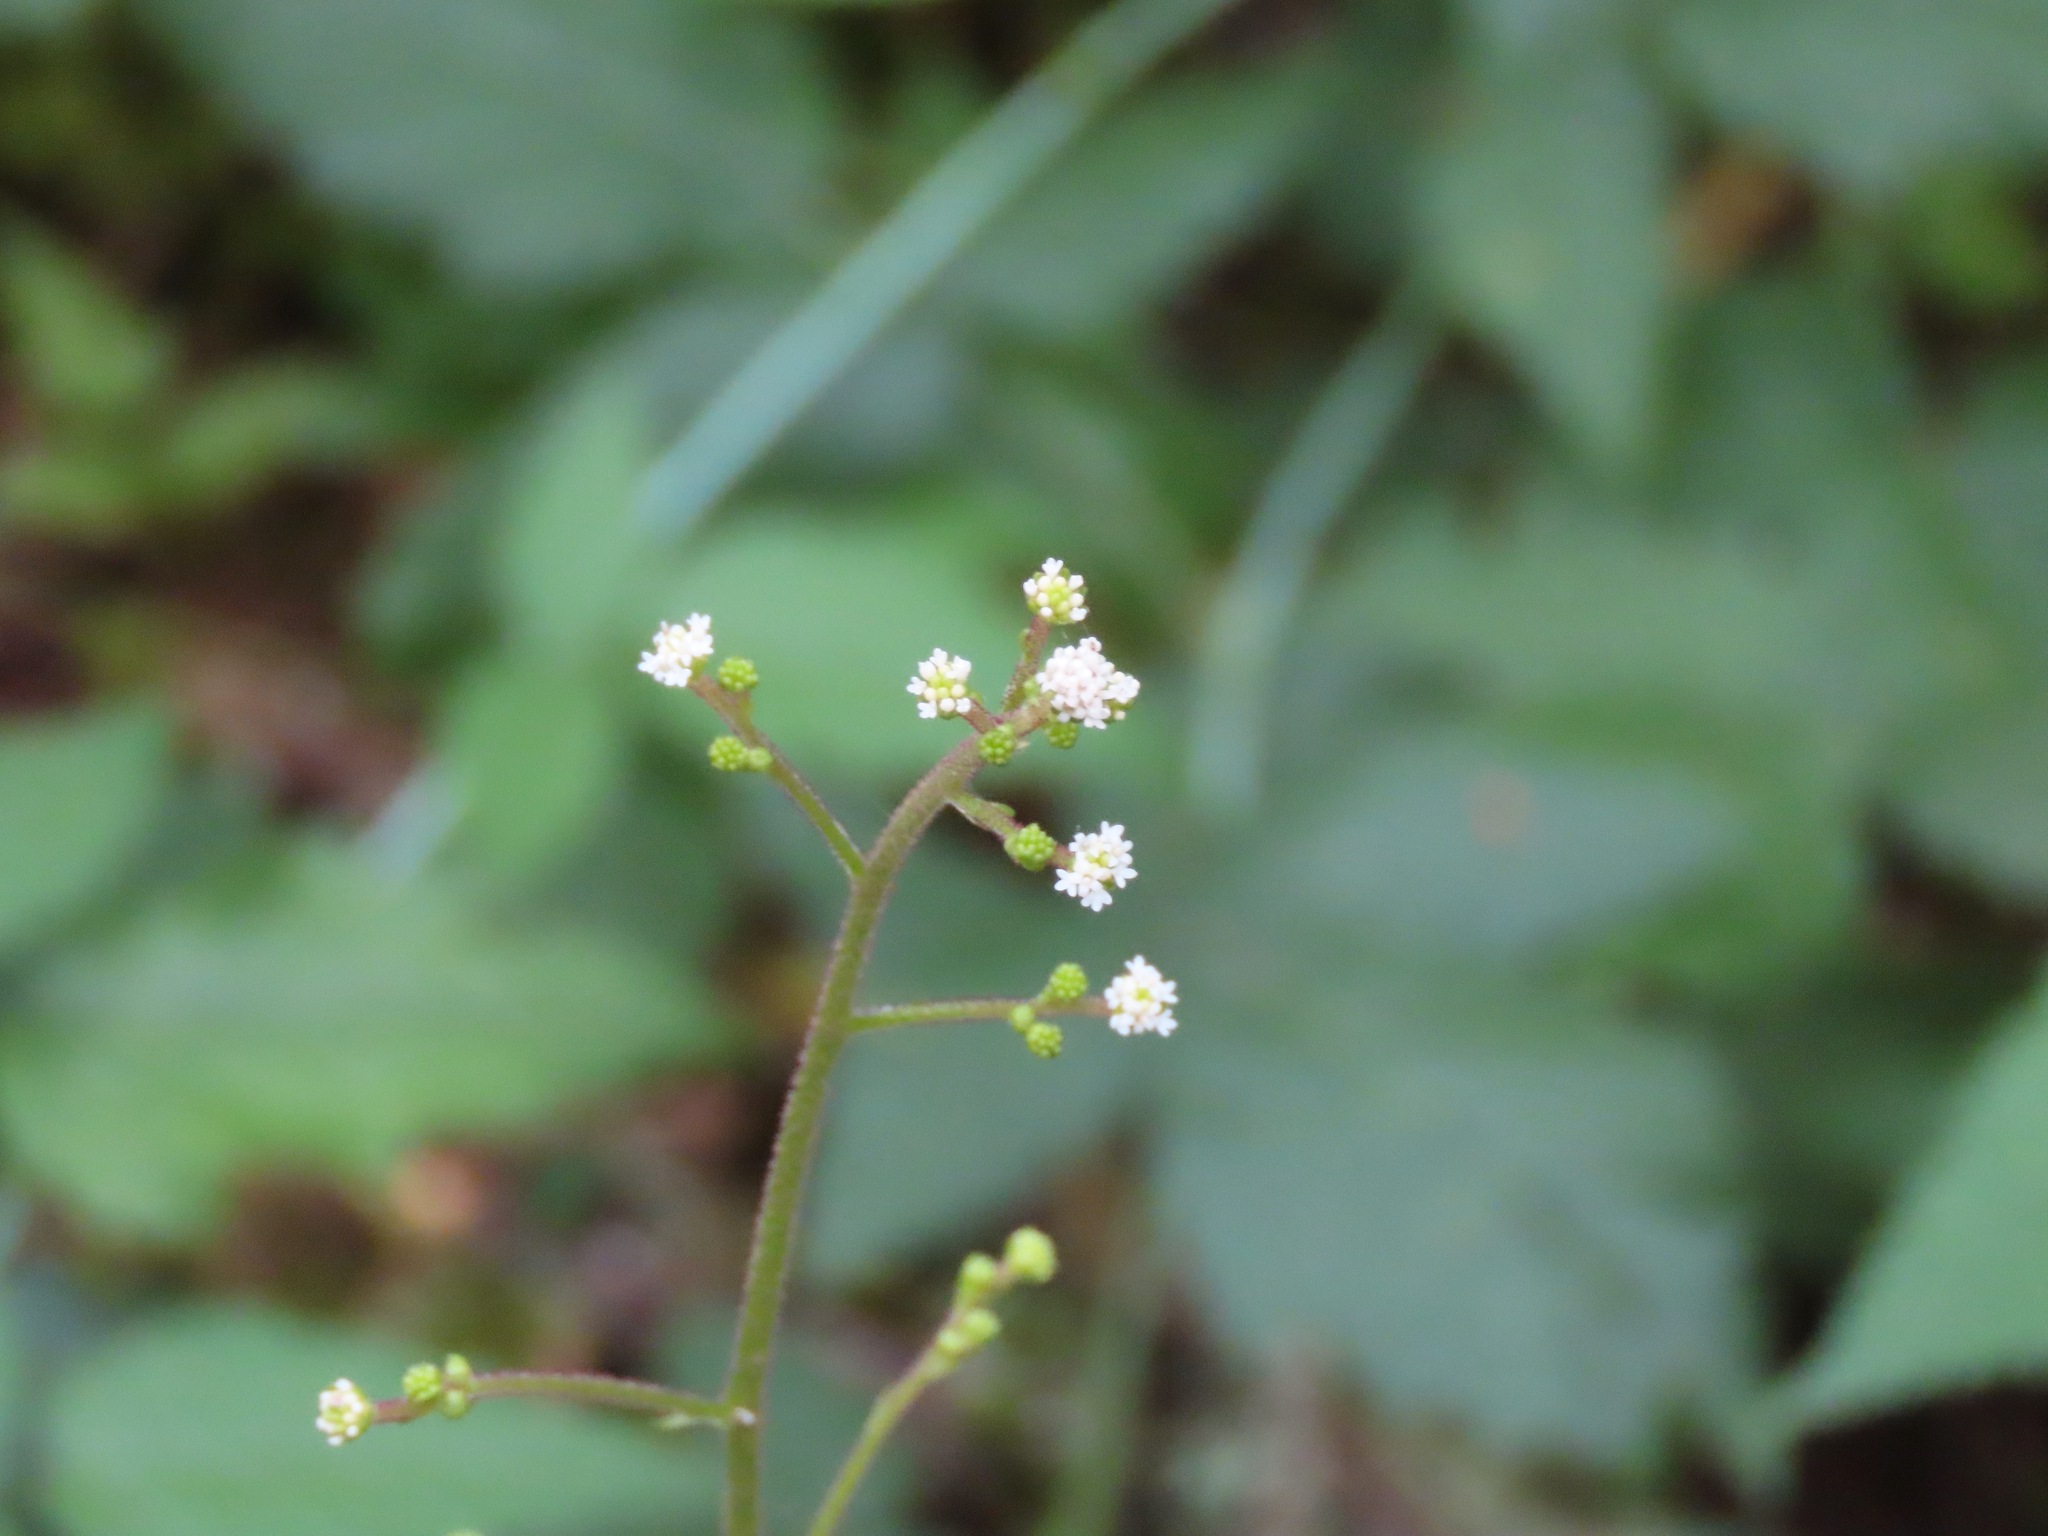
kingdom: Plantae
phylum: Tracheophyta
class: Magnoliopsida
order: Asterales
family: Asteraceae
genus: Adenocaulon
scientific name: Adenocaulon bicolor
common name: Trailplant
